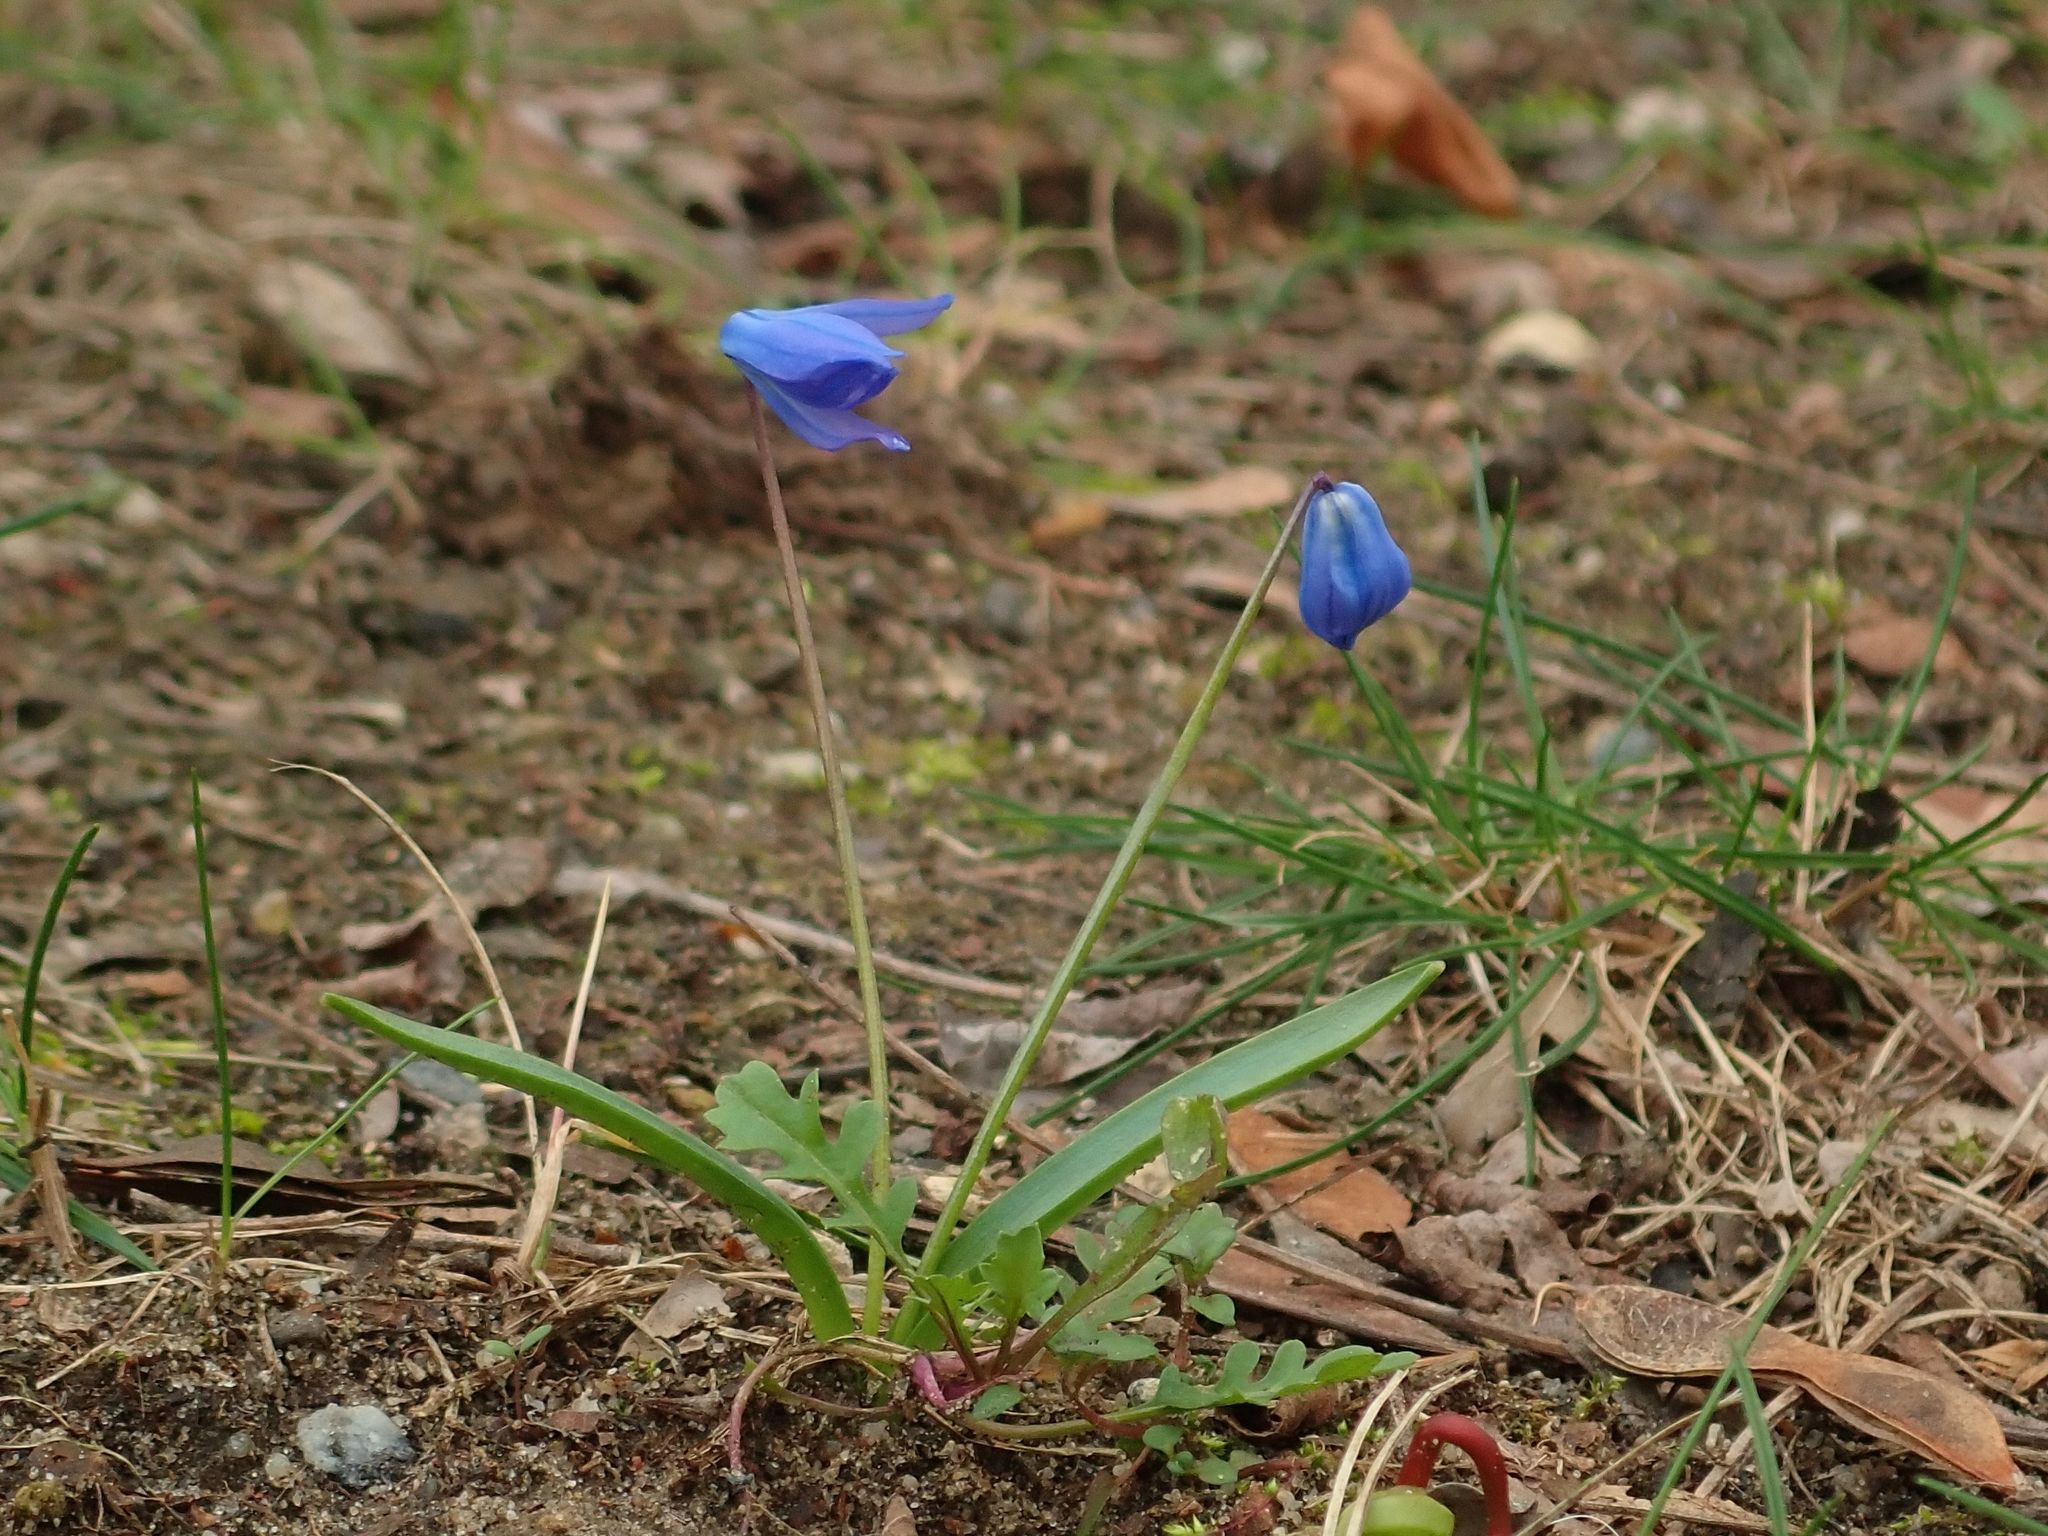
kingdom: Plantae
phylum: Tracheophyta
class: Liliopsida
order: Asparagales
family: Asparagaceae
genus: Scilla
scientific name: Scilla siberica
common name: Siberian squill
